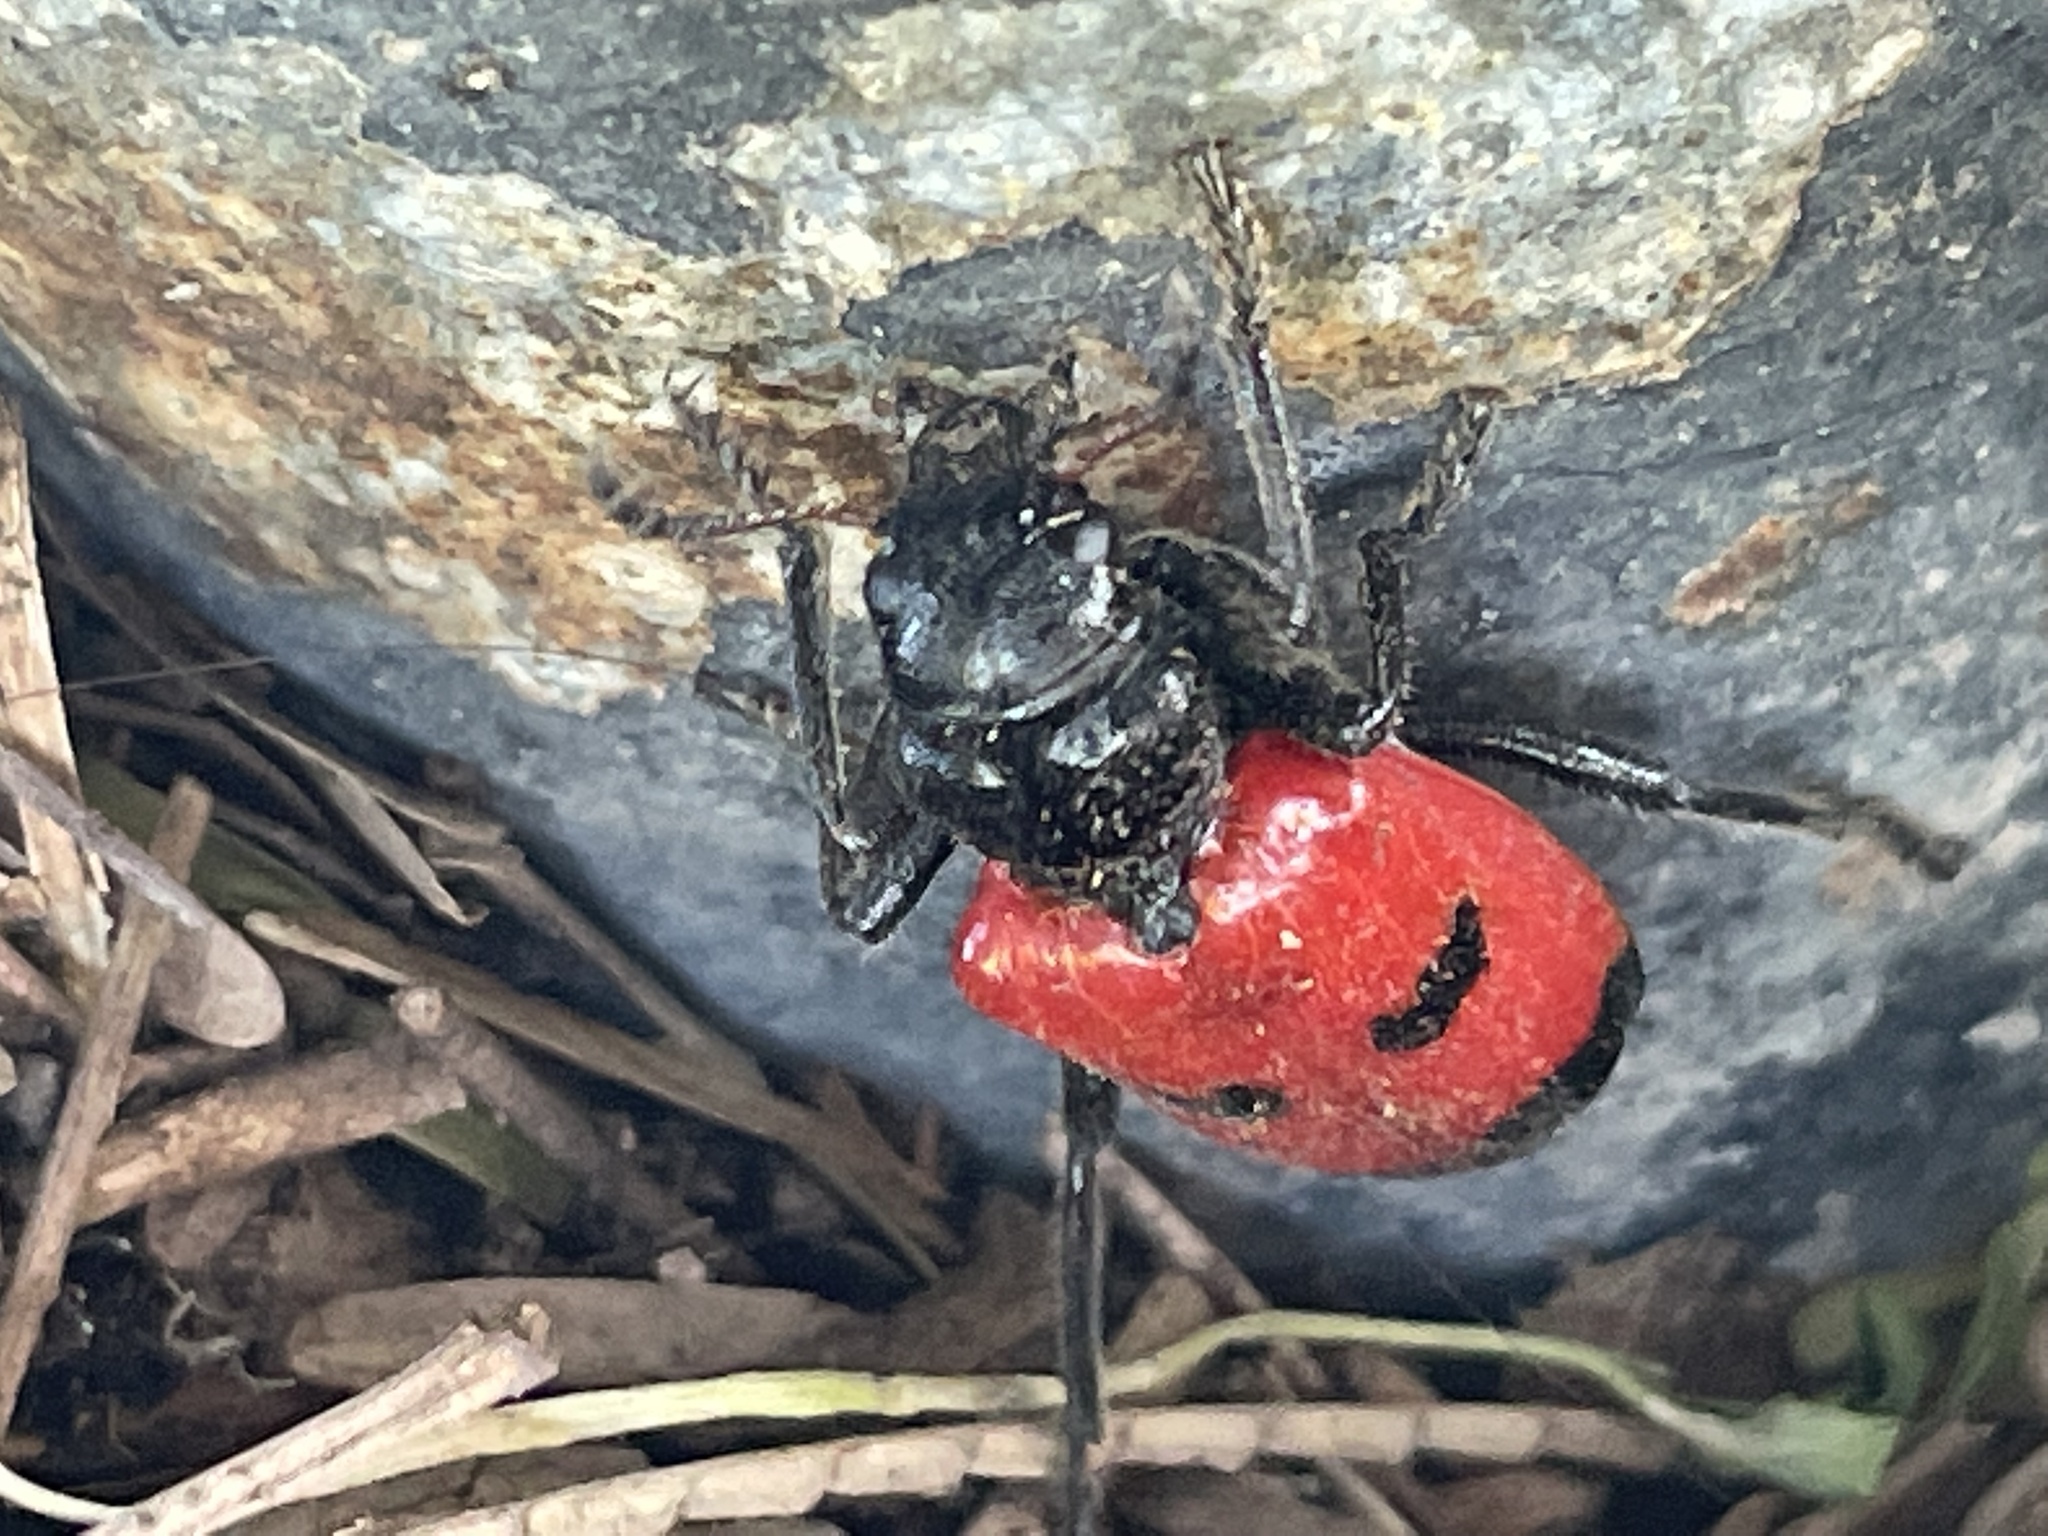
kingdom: Animalia
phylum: Arthropoda
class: Insecta
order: Coleoptera
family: Cleridae
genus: Aulicus
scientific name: Aulicus edwardsi
